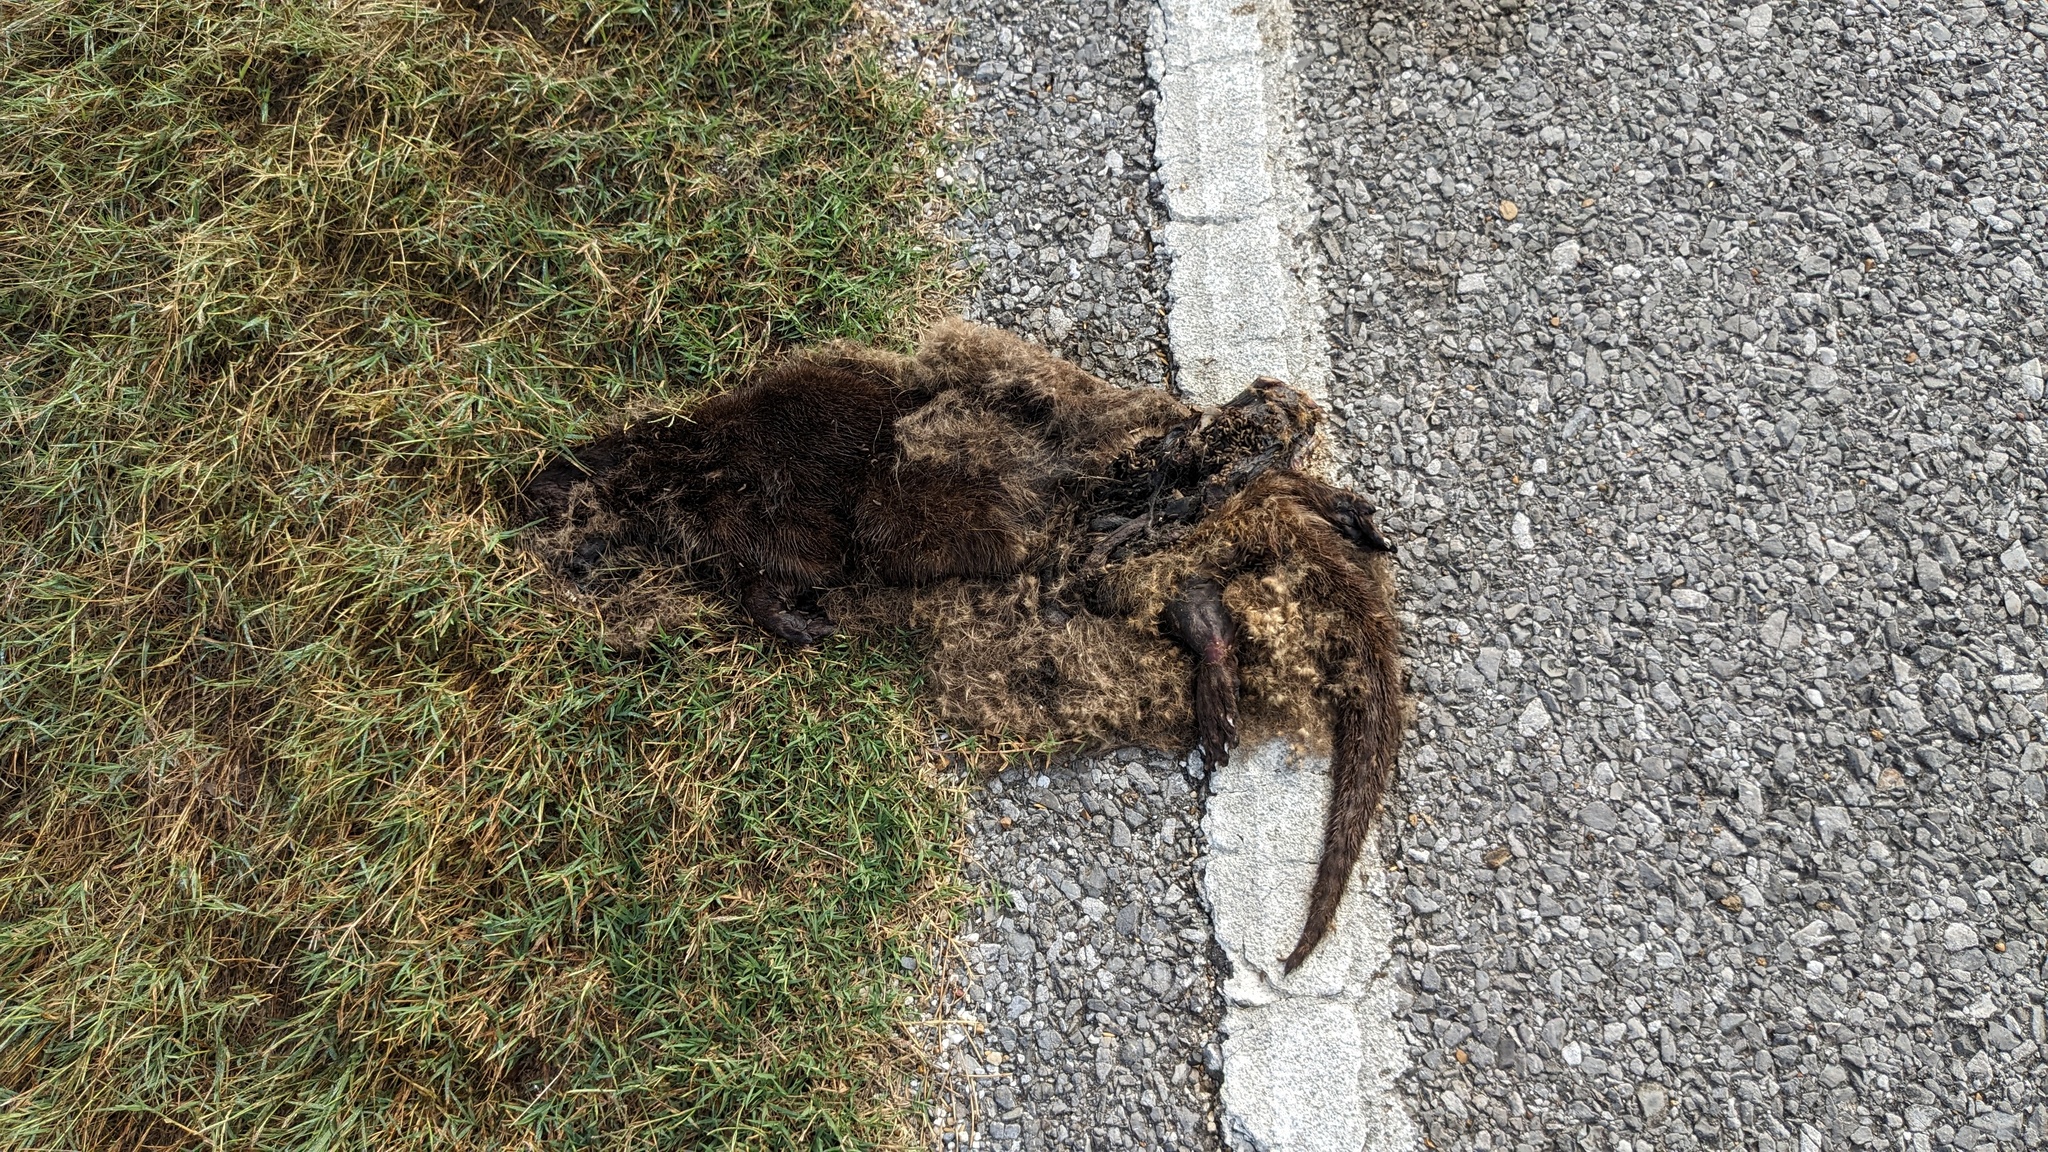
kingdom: Animalia
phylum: Chordata
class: Mammalia
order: Carnivora
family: Mustelidae
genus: Lontra
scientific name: Lontra canadensis
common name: North american river otter
